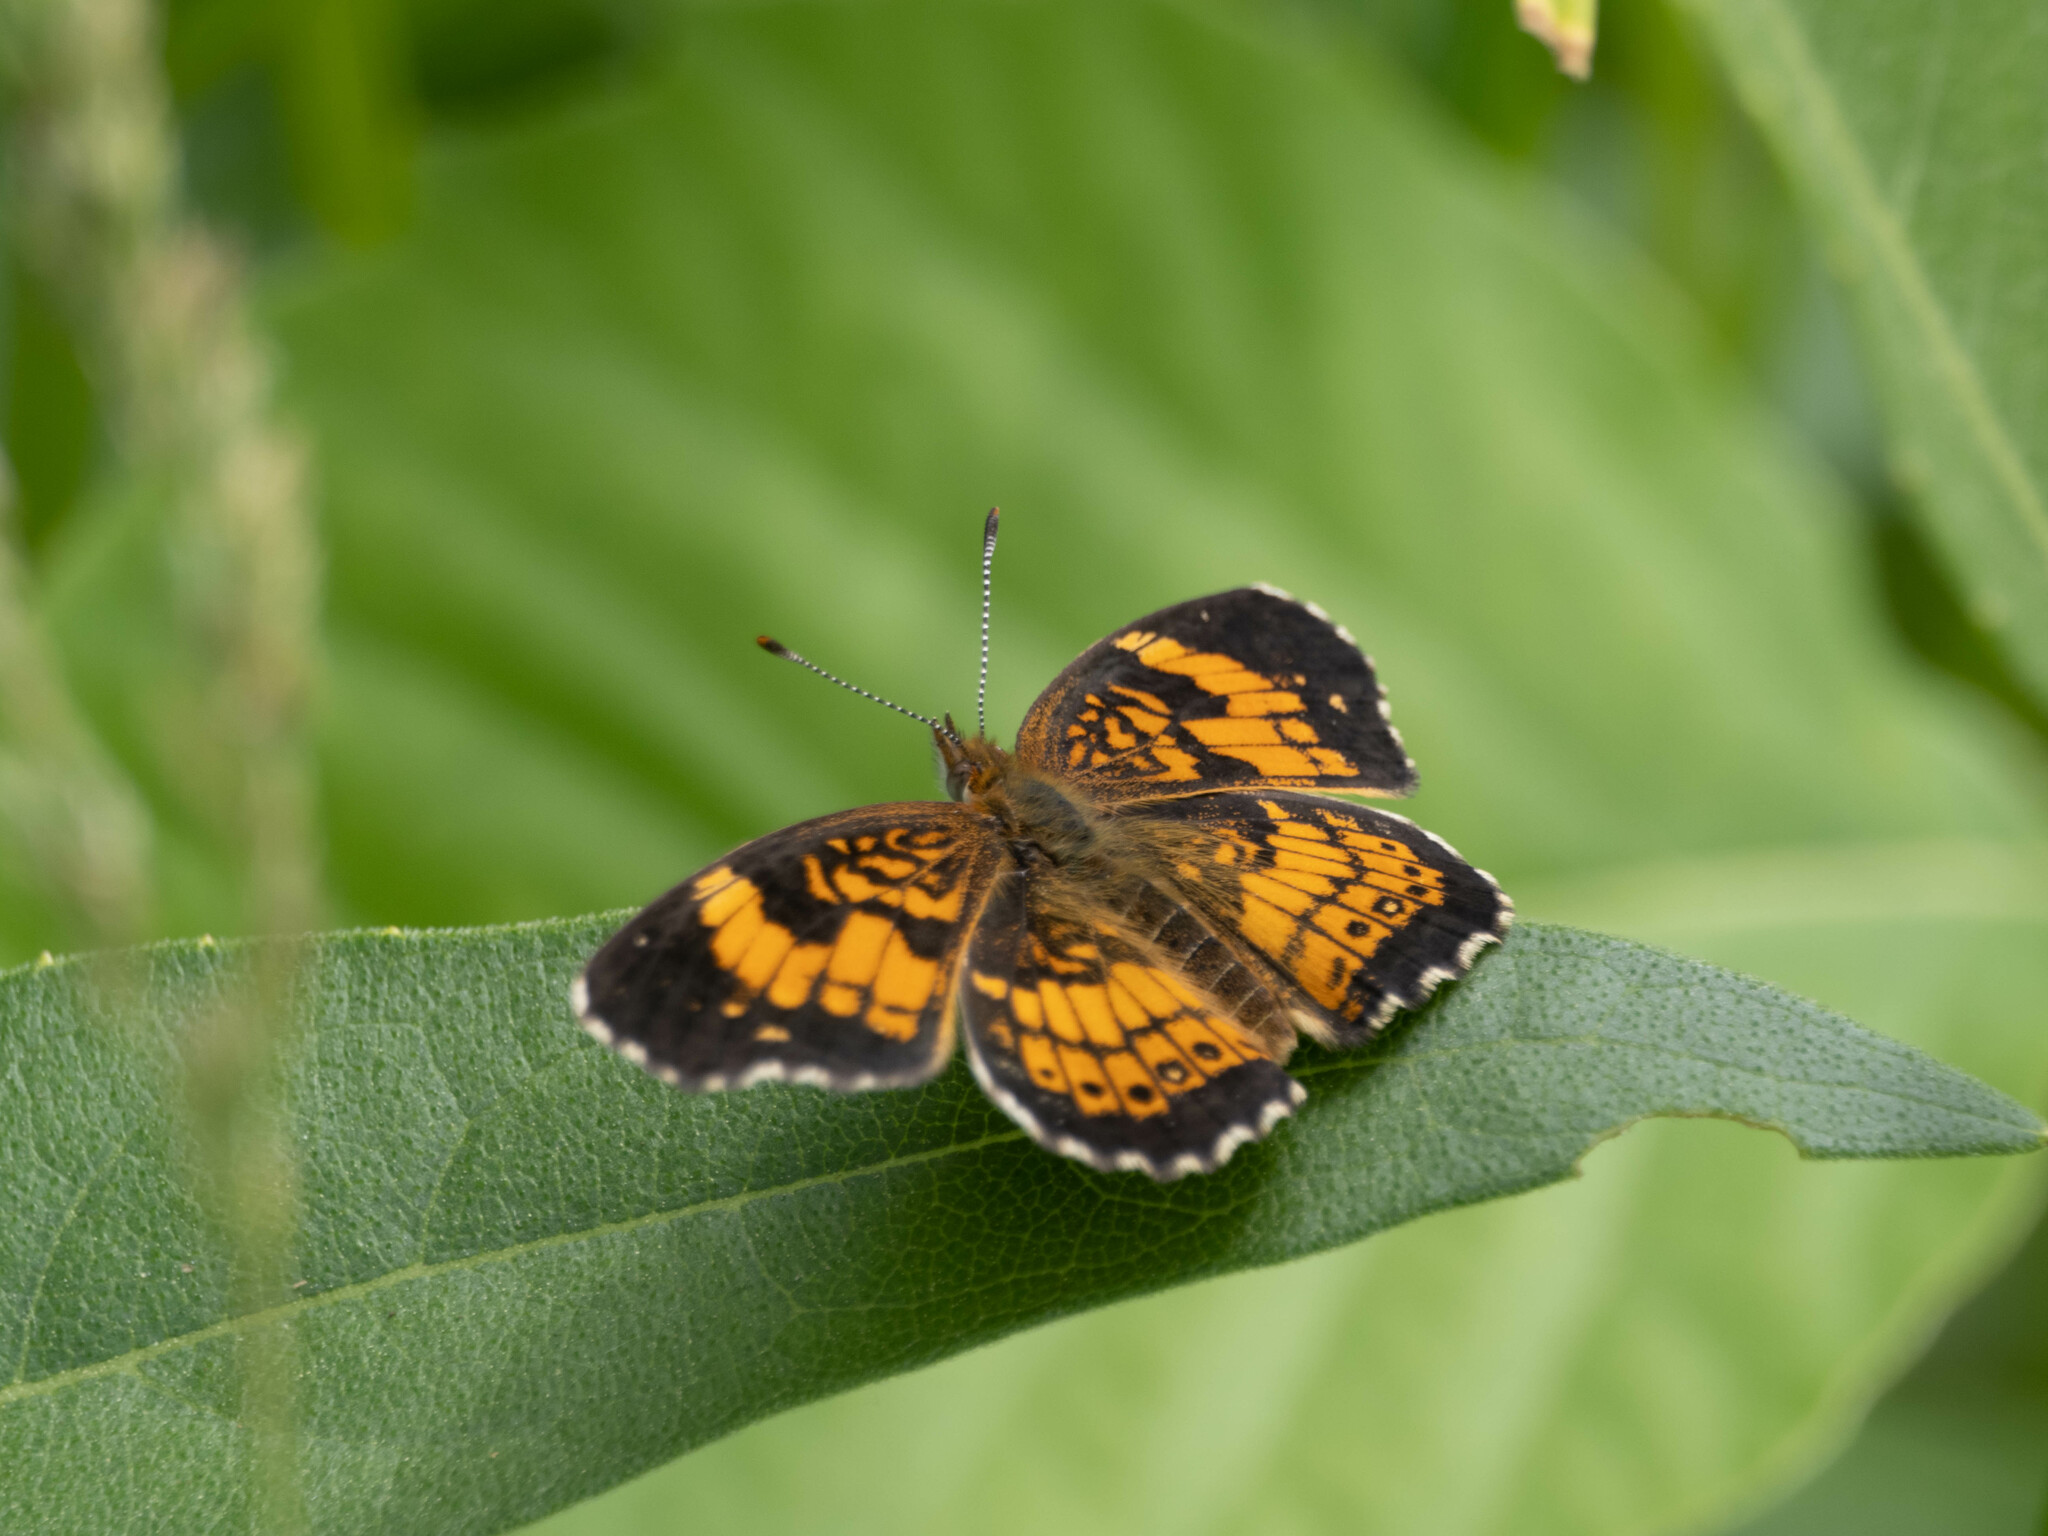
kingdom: Animalia
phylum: Arthropoda
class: Insecta
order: Lepidoptera
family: Nymphalidae
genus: Chlosyne
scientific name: Chlosyne nycteis
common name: Silvery checkerspot
